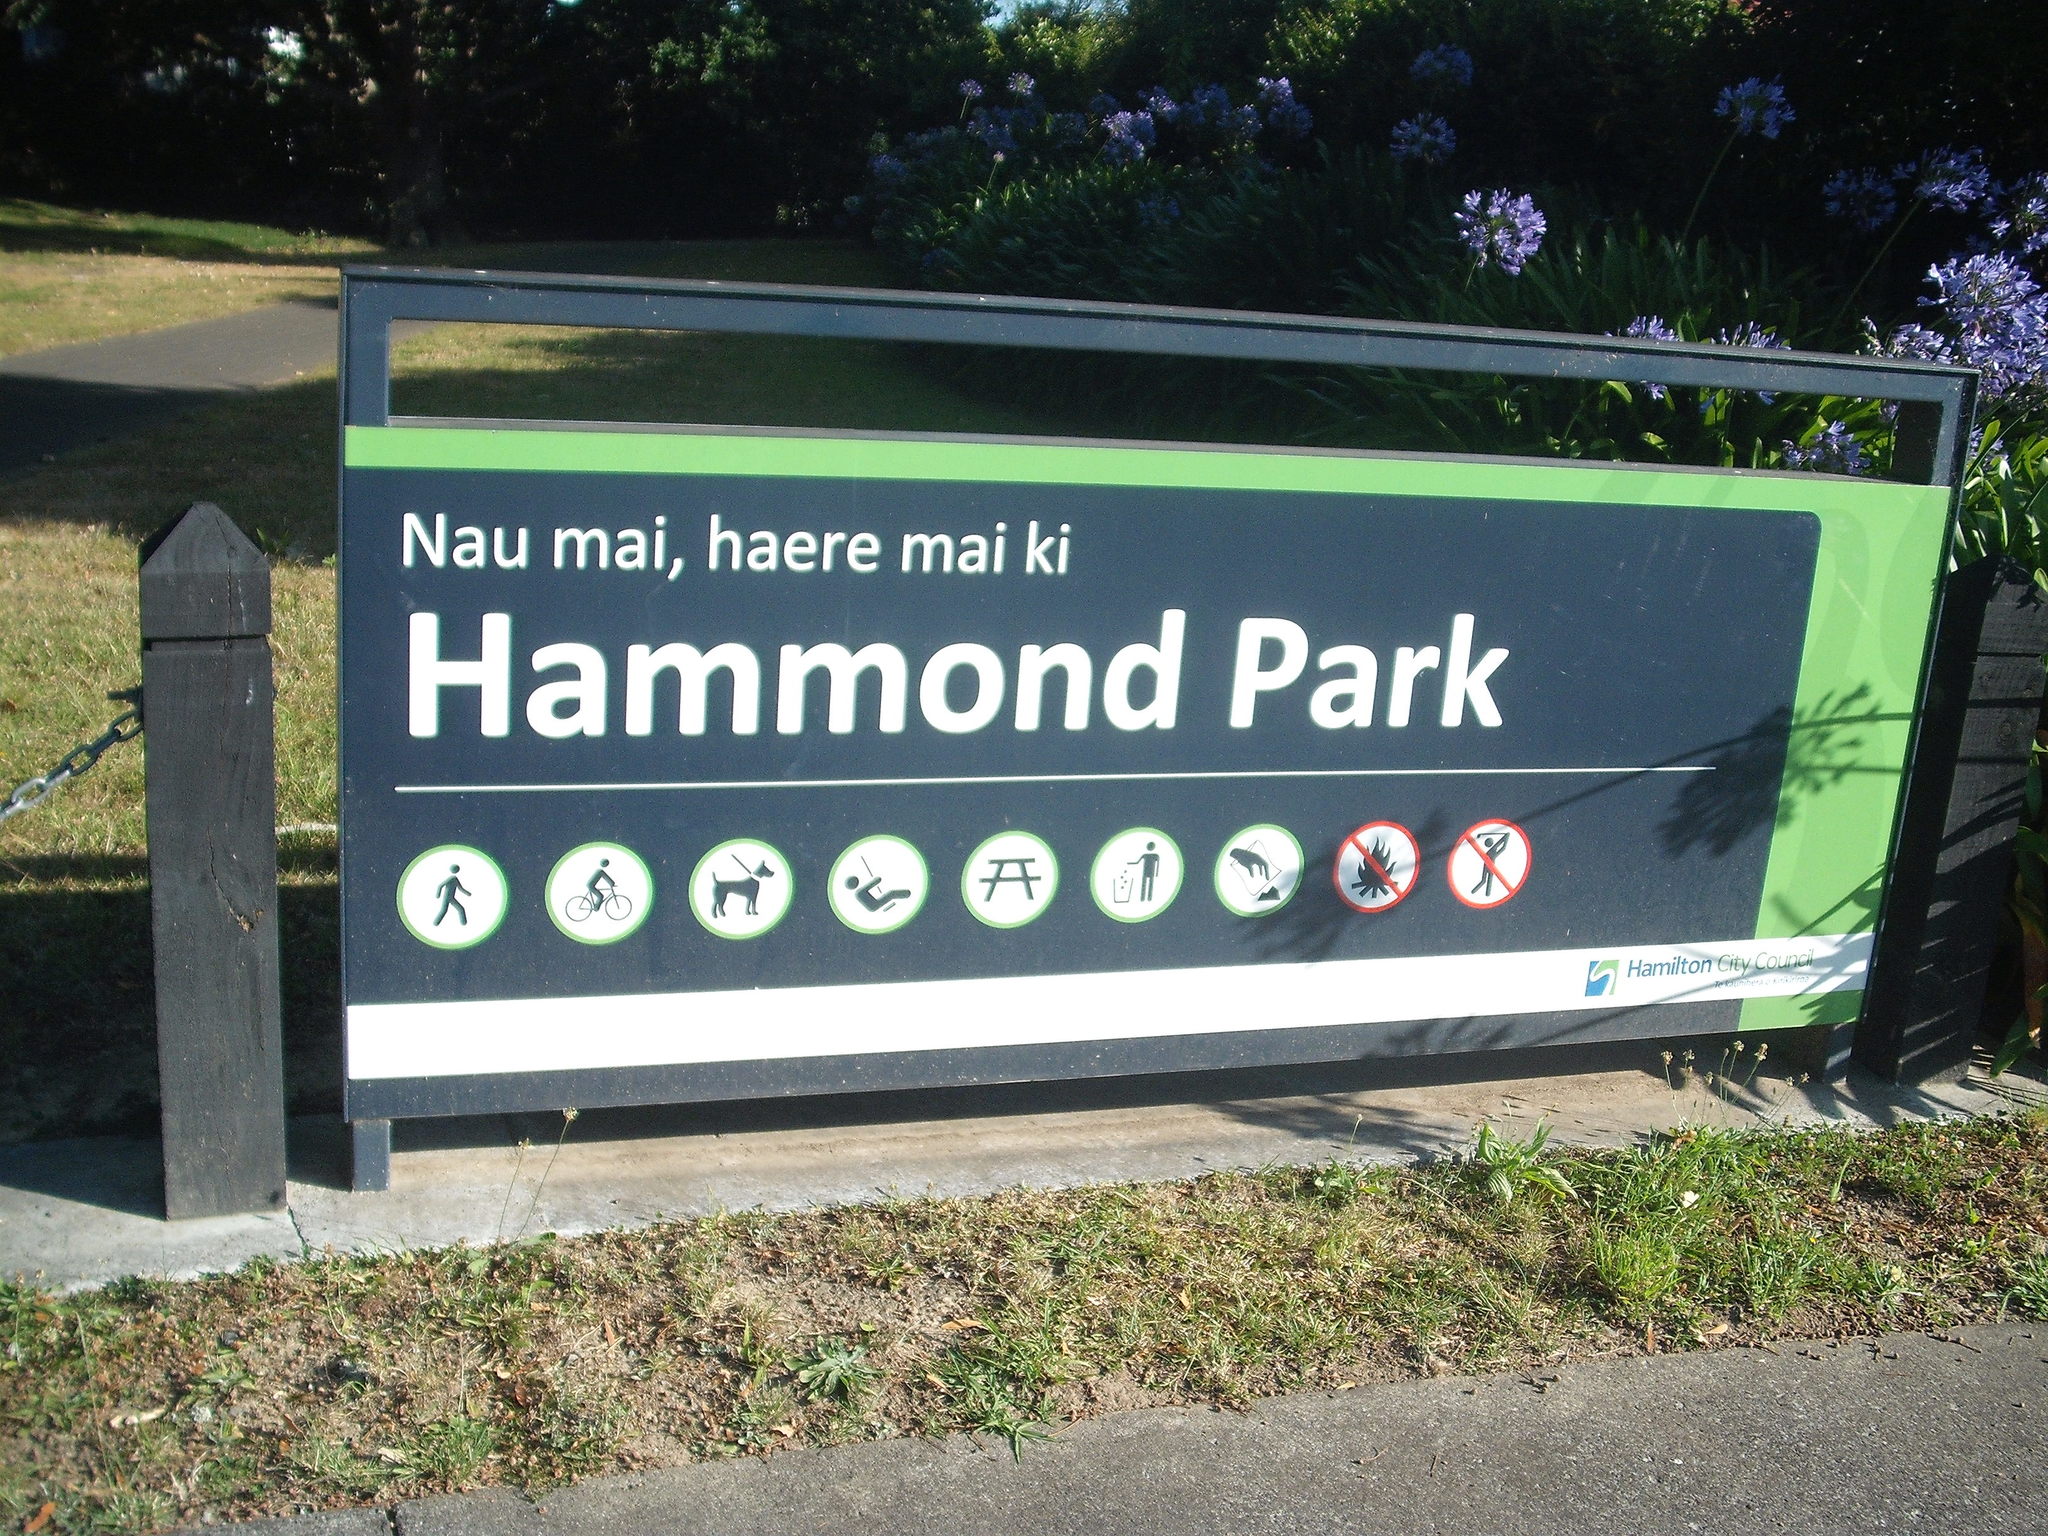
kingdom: Animalia
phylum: Chordata
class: Aves
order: Passeriformes
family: Fringillidae
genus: Carduelis
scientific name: Carduelis carduelis
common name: European goldfinch
